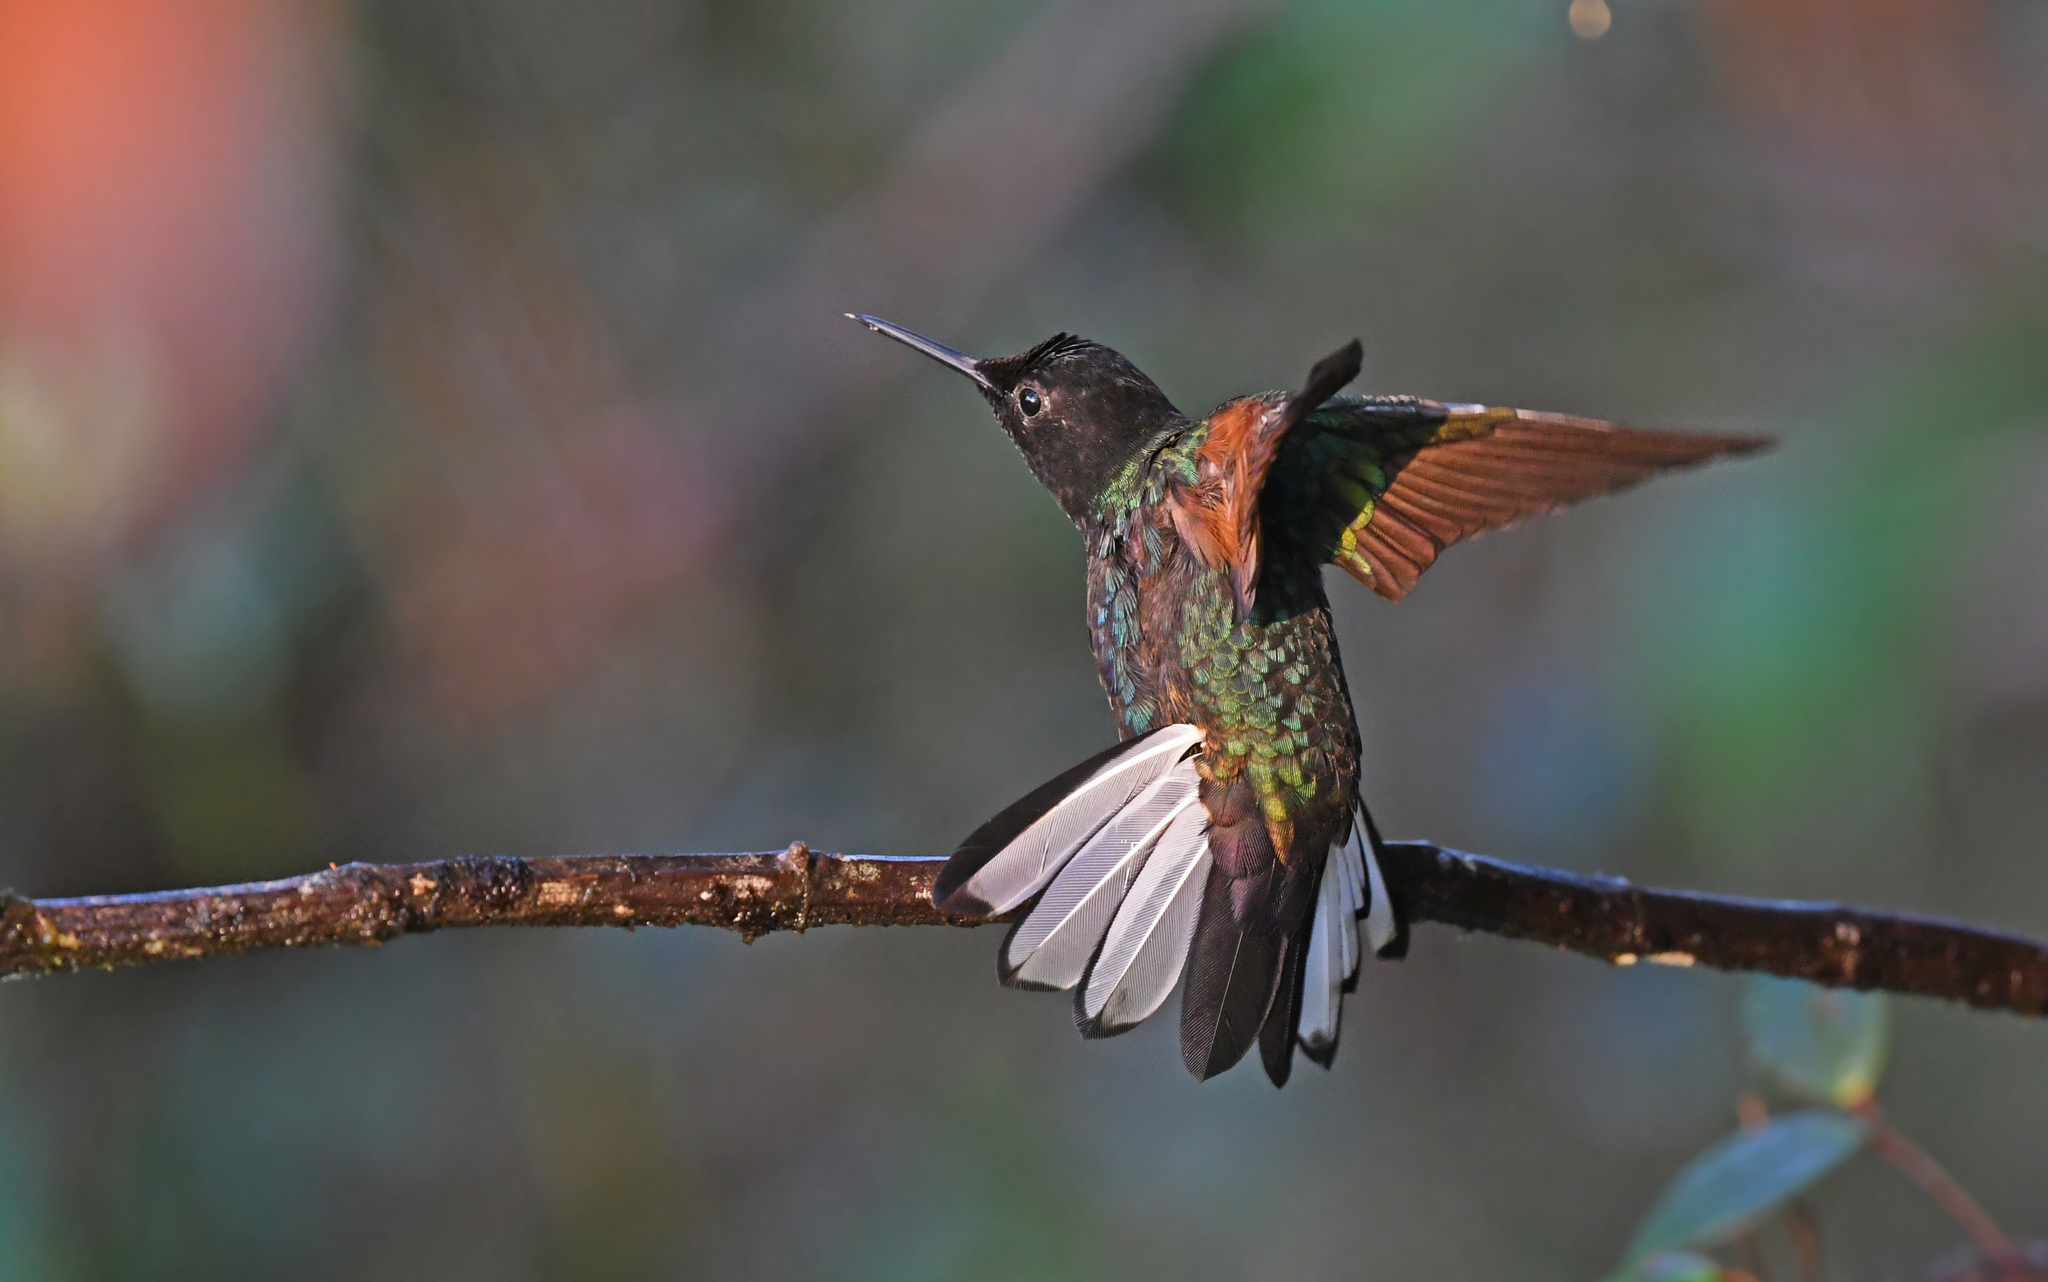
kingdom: Animalia
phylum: Chordata
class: Aves
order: Apodiformes
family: Trochilidae
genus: Boissonneaua
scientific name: Boissonneaua jardini
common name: Velvet-purple coronet
